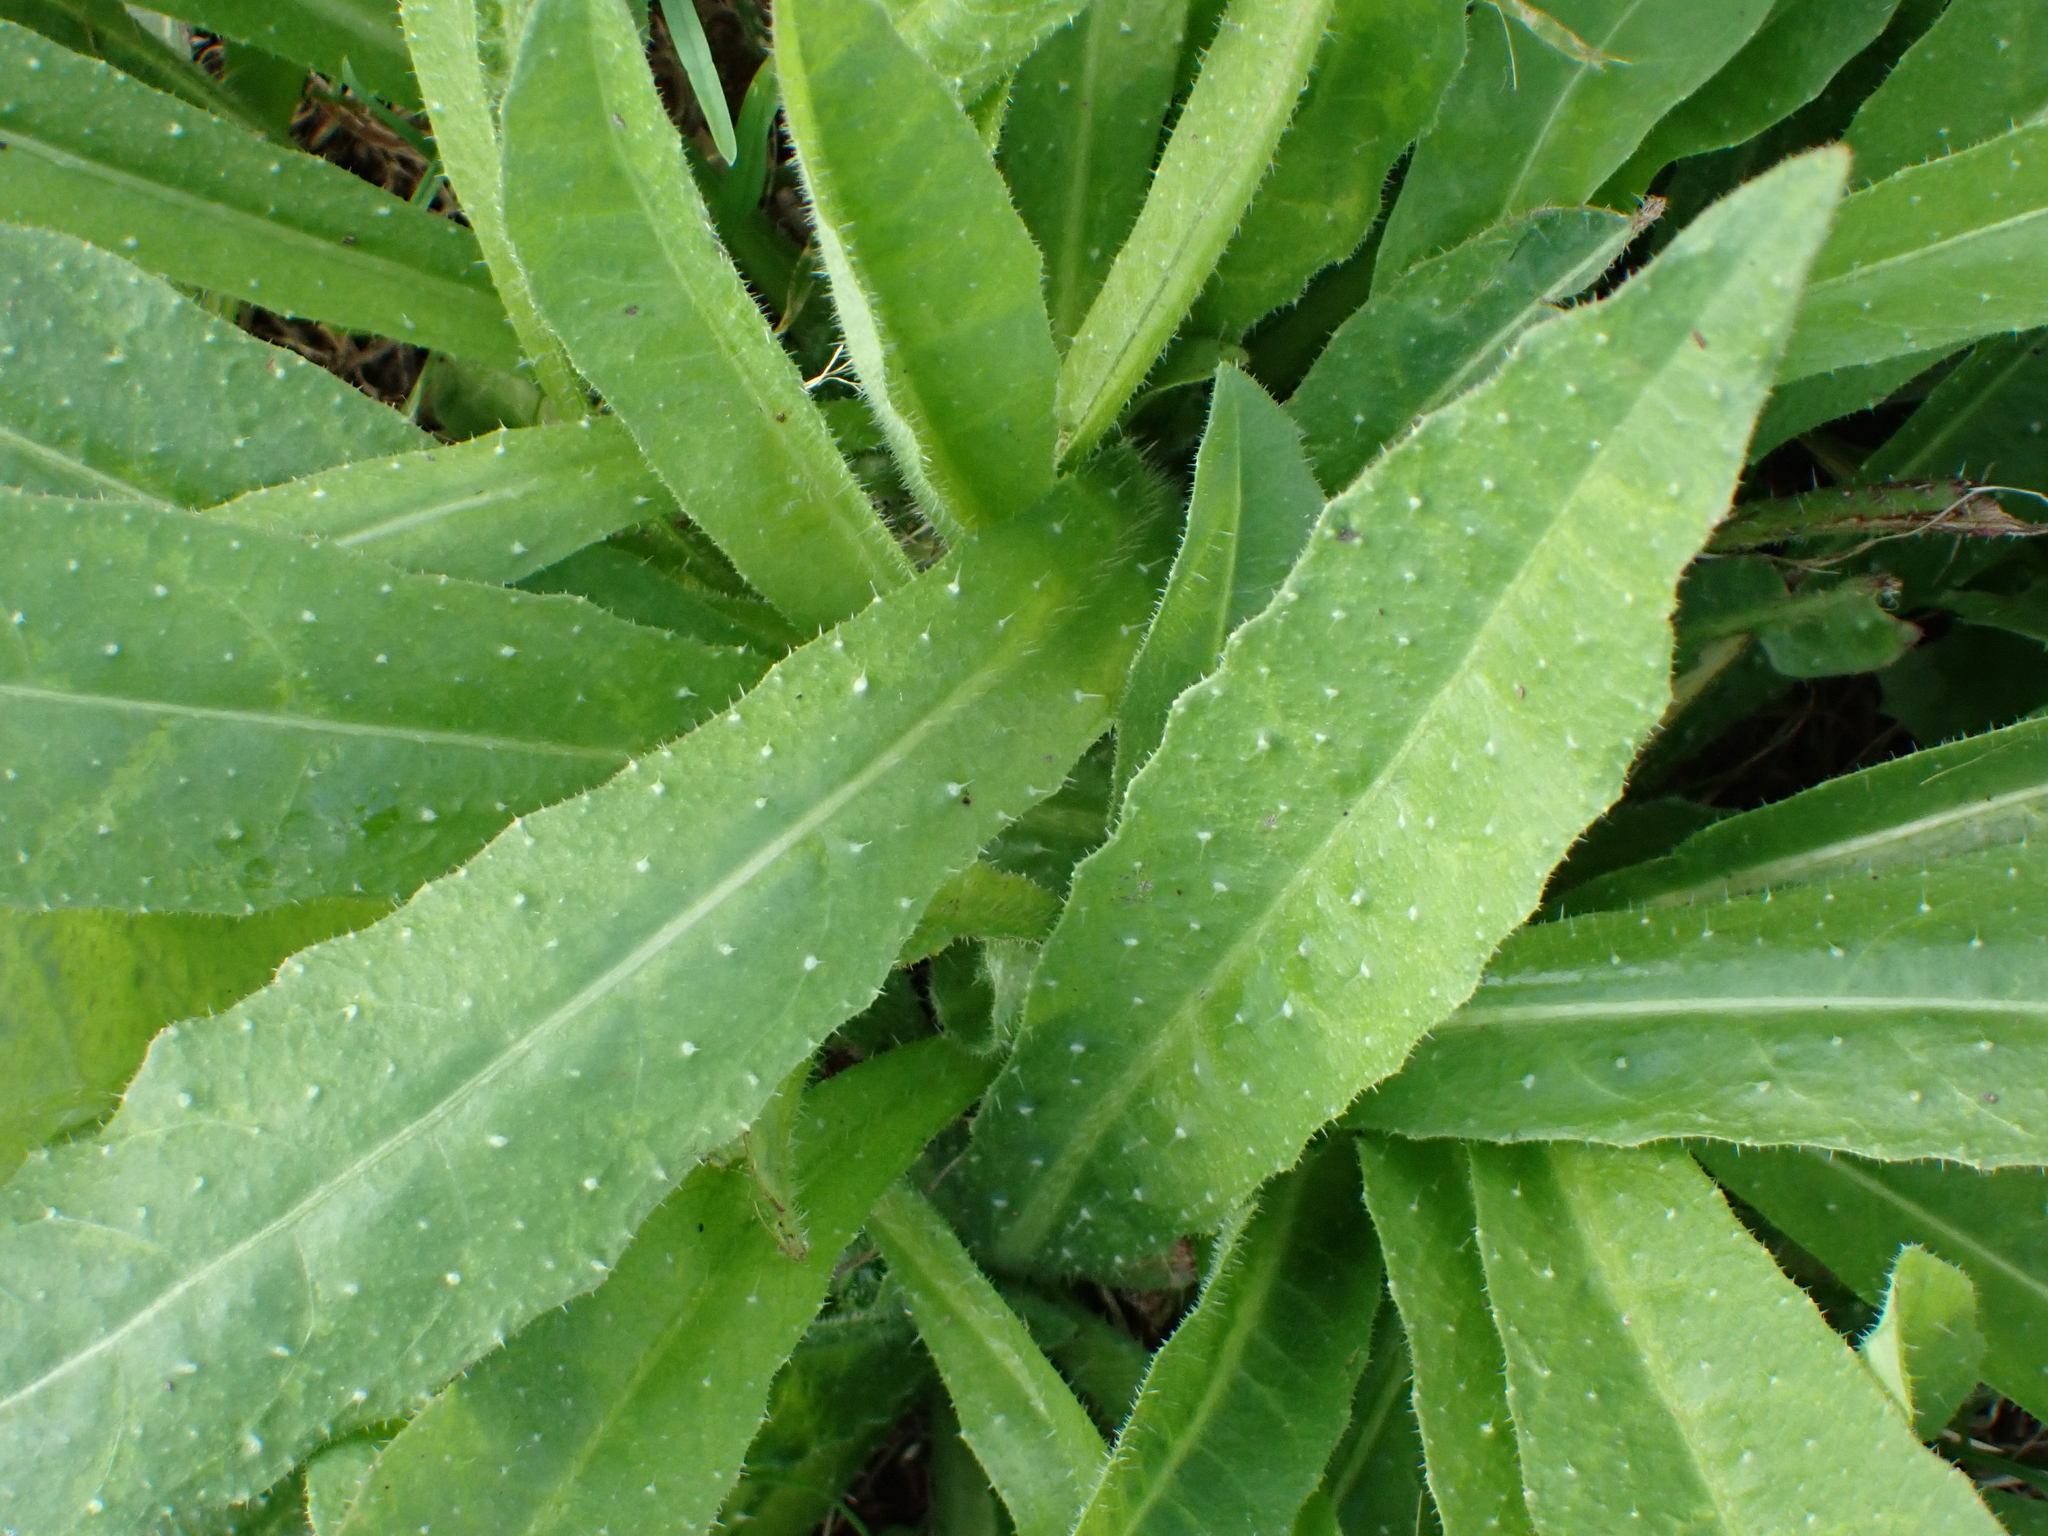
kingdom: Plantae
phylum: Tracheophyta
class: Magnoliopsida
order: Asterales
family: Asteraceae
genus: Helminthotheca
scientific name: Helminthotheca echioides
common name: Ox-tongue
